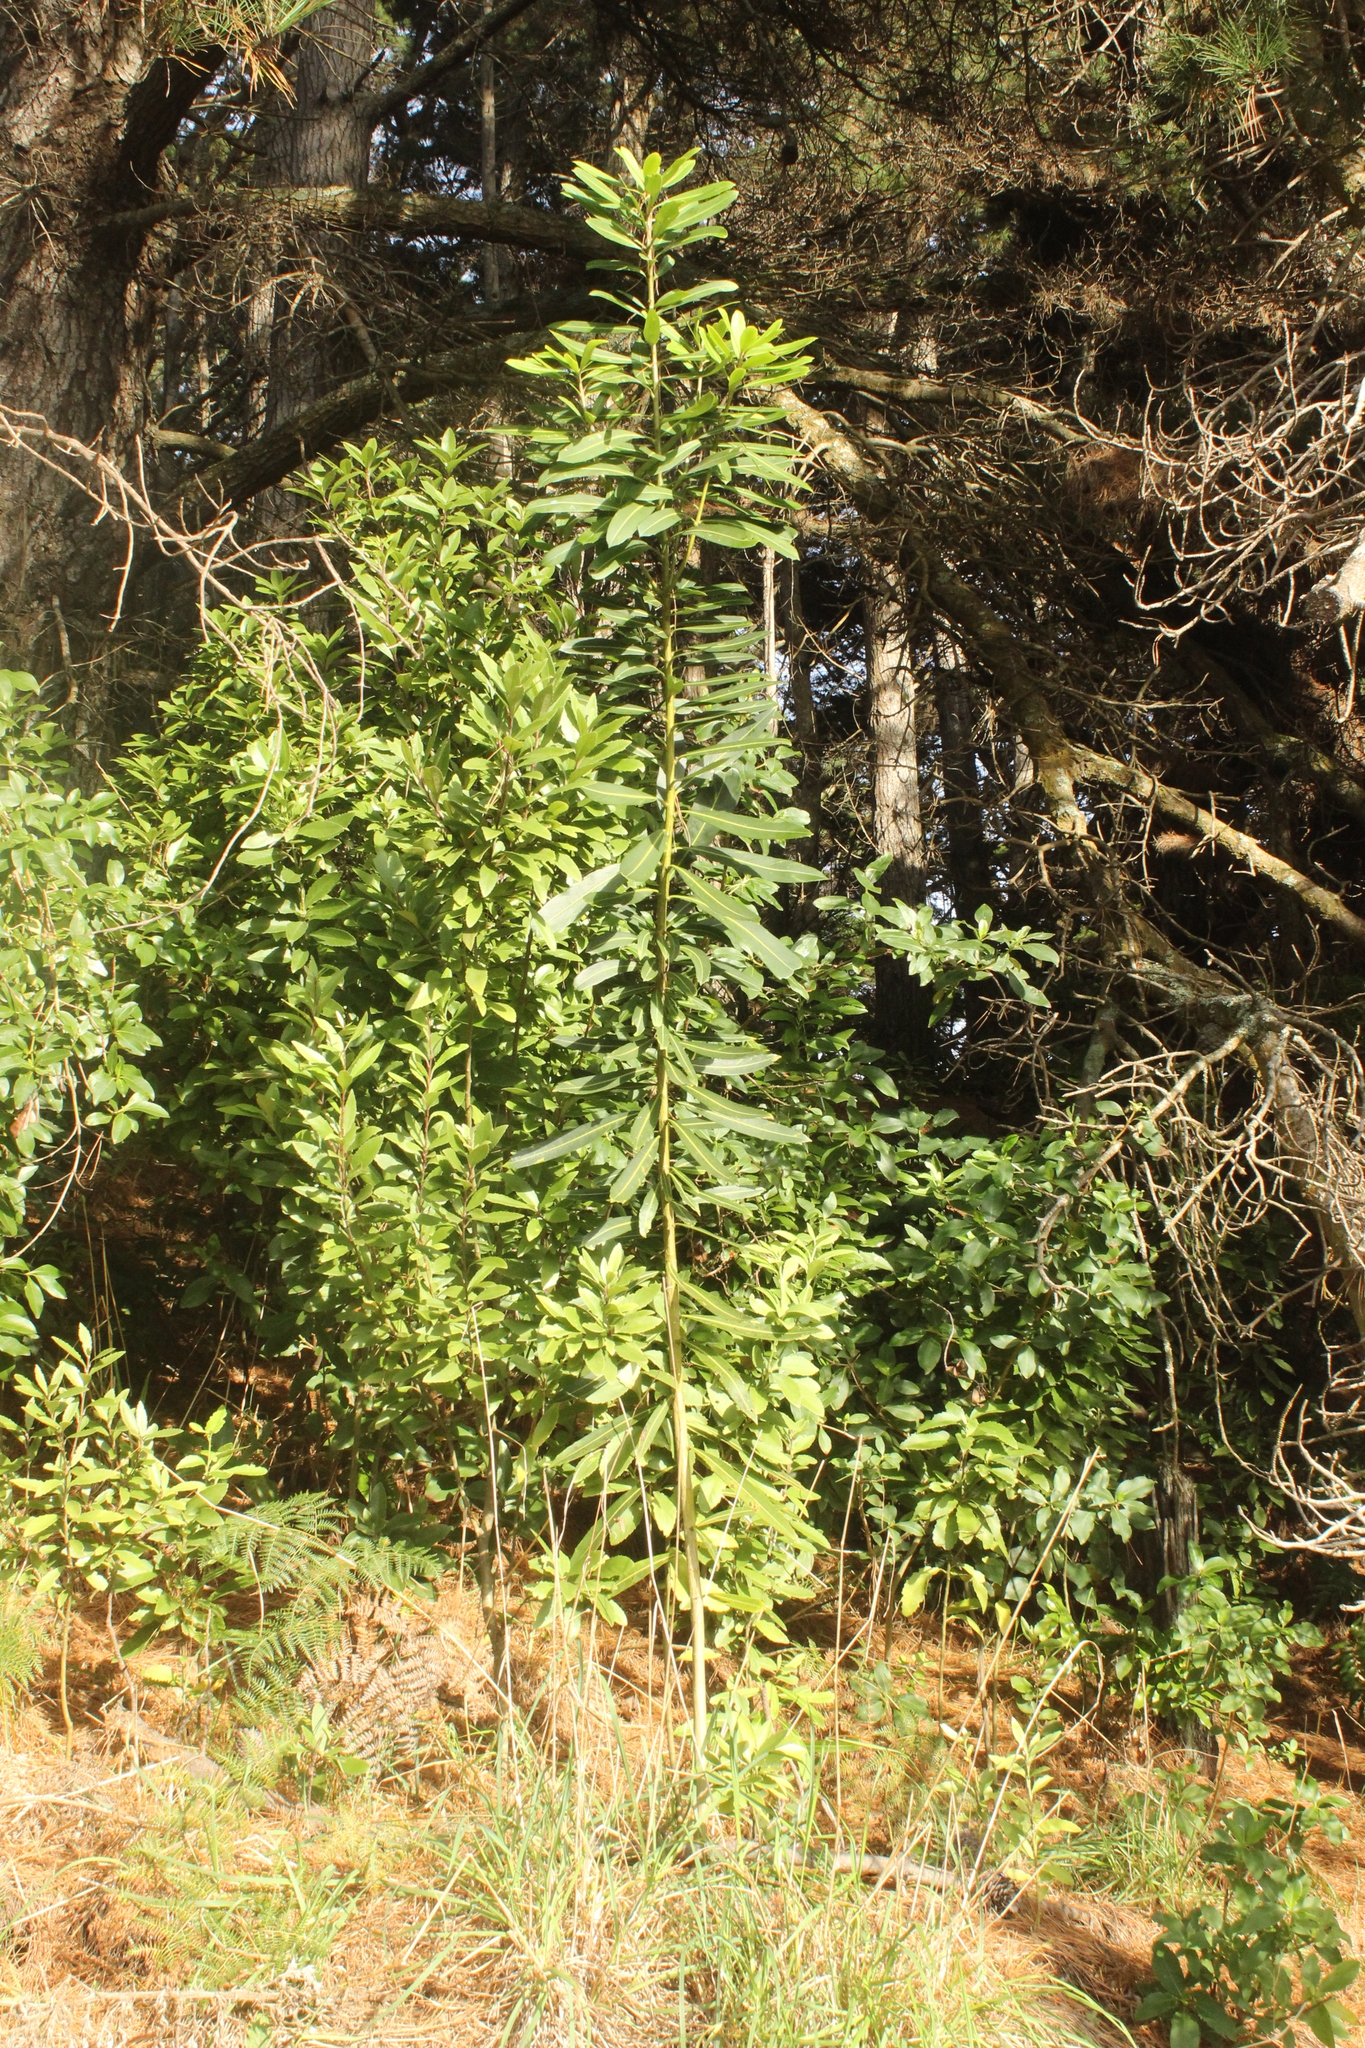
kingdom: Plantae
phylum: Tracheophyta
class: Magnoliopsida
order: Apiales
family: Araliaceae
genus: Pseudopanax
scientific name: Pseudopanax chathamicus
